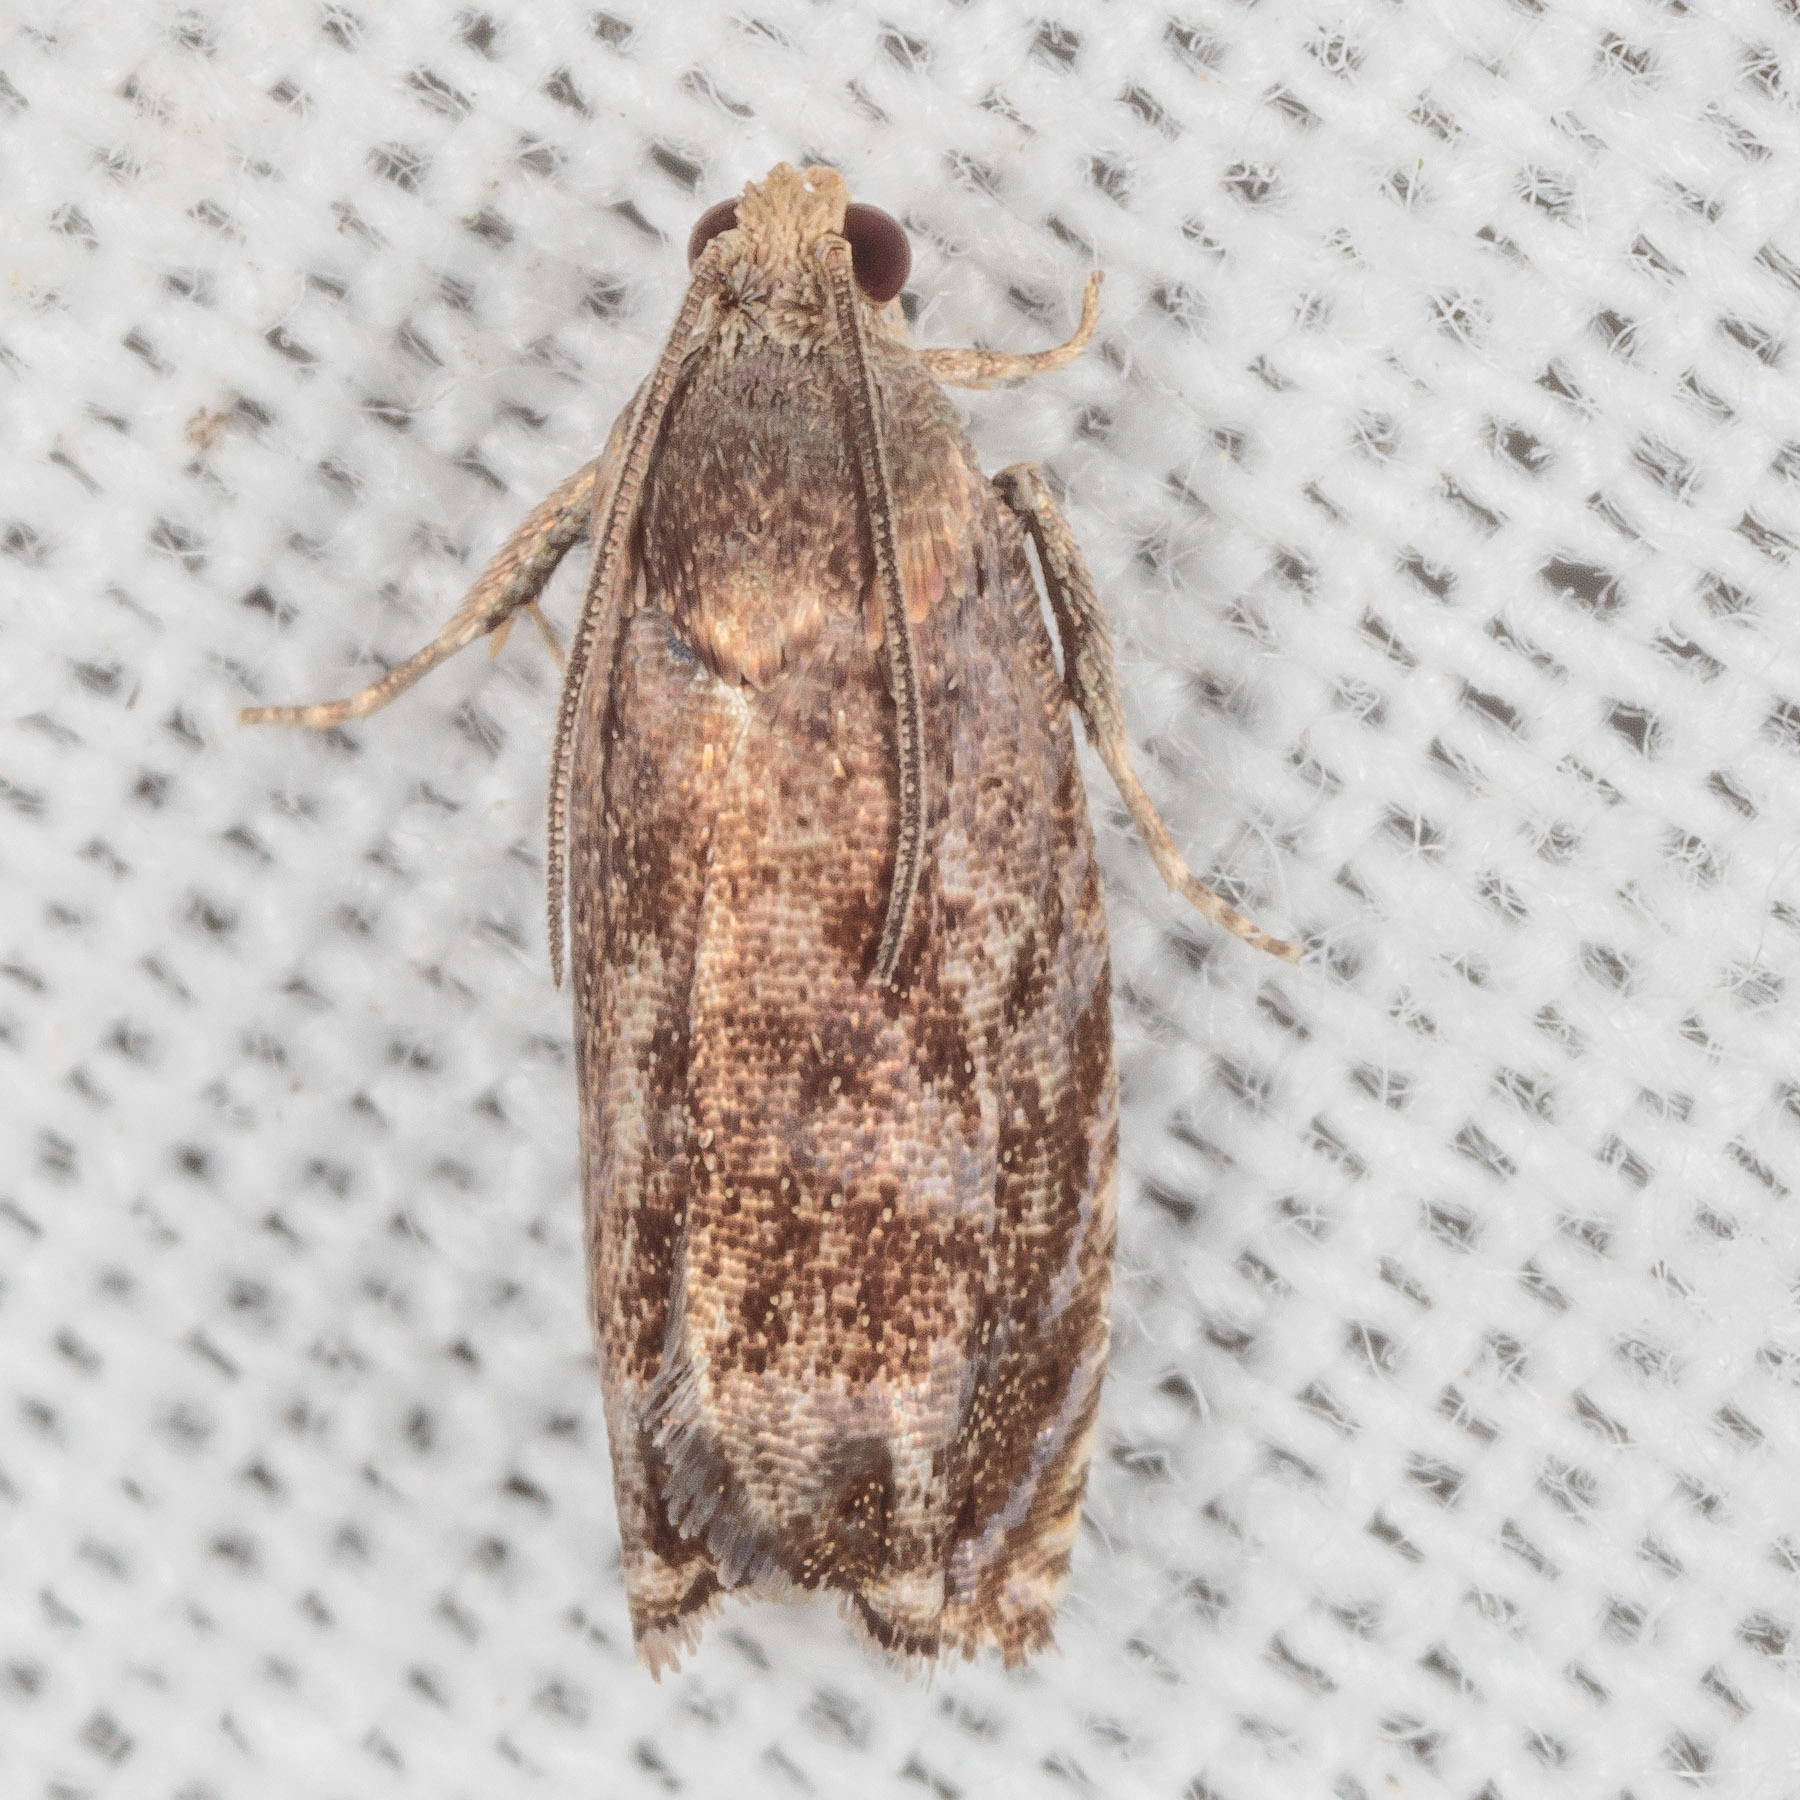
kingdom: Animalia
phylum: Arthropoda
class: Insecta
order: Lepidoptera
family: Tortricidae
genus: Cydia
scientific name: Cydia caryana
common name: Hickory shuckworm moth
